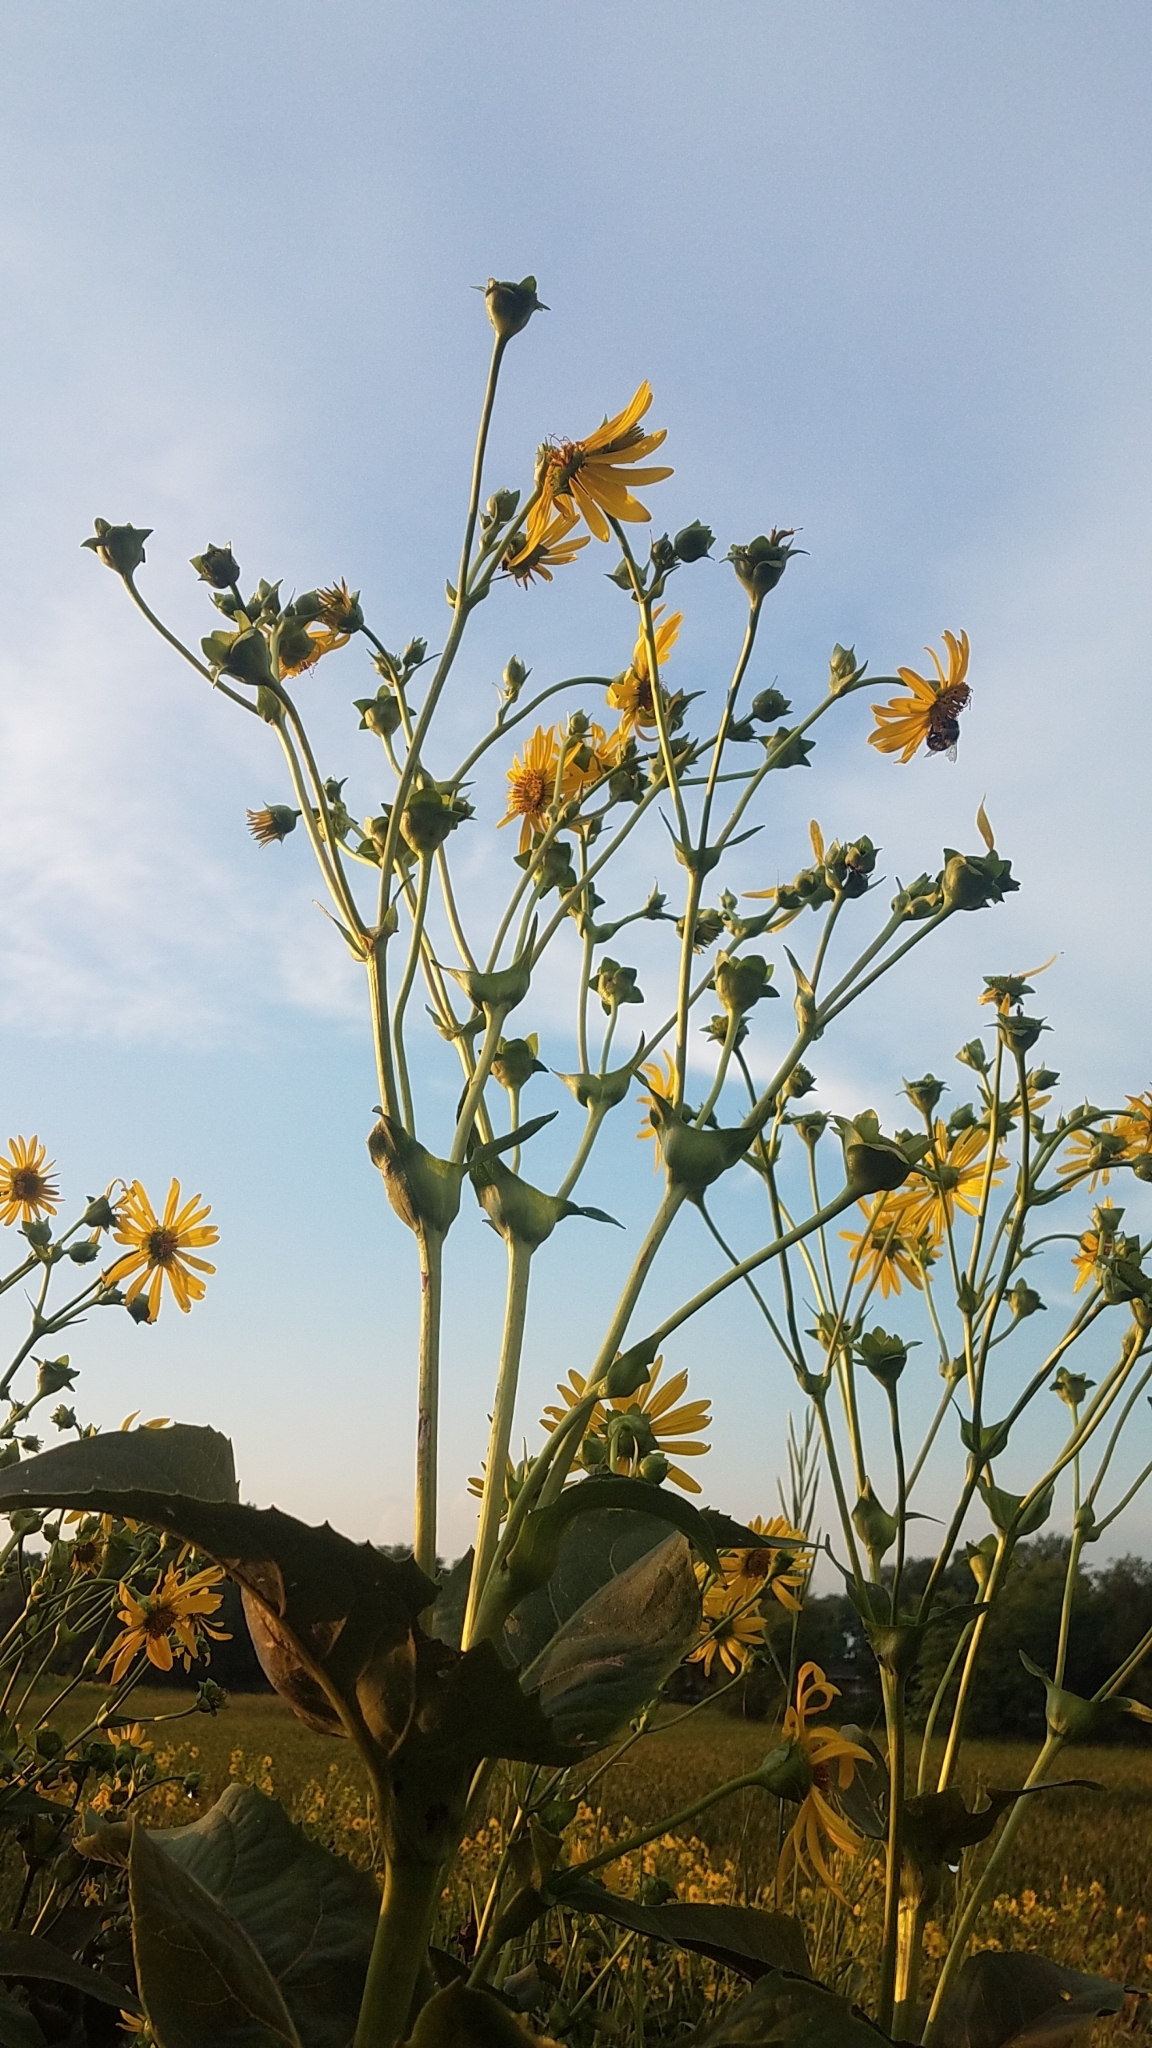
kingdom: Plantae
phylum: Tracheophyta
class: Magnoliopsida
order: Asterales
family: Asteraceae
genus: Silphium
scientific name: Silphium perfoliatum
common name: Cup-plant
